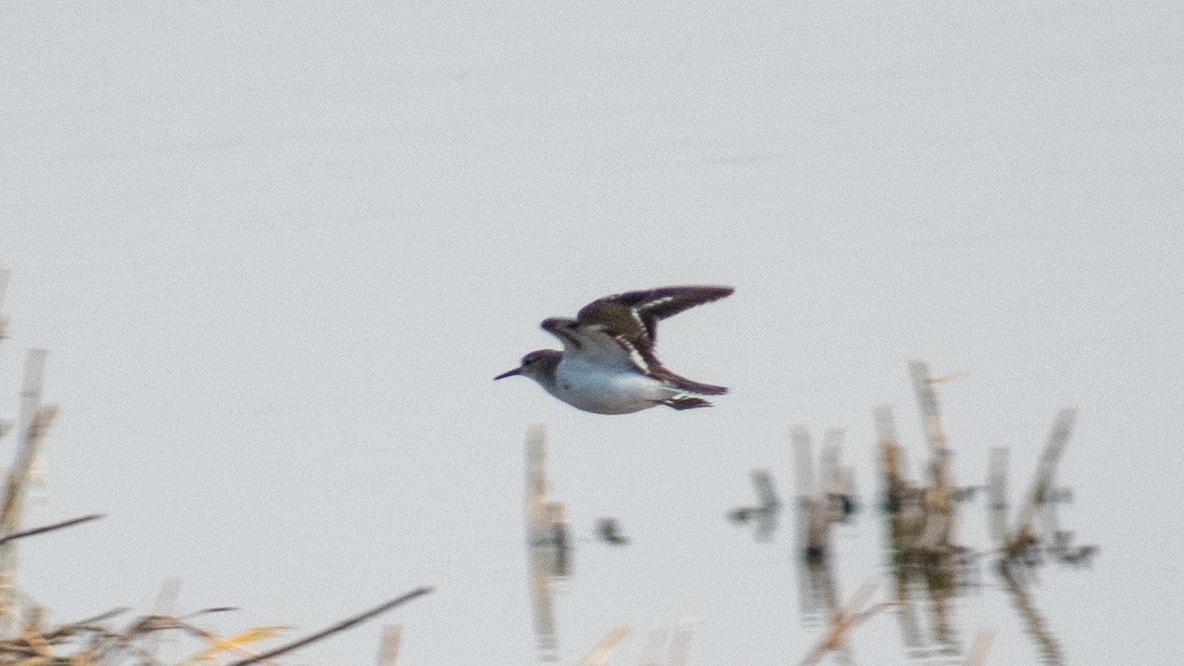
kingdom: Animalia
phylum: Chordata
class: Aves
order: Charadriiformes
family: Scolopacidae
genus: Actitis
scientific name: Actitis hypoleucos
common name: Common sandpiper
